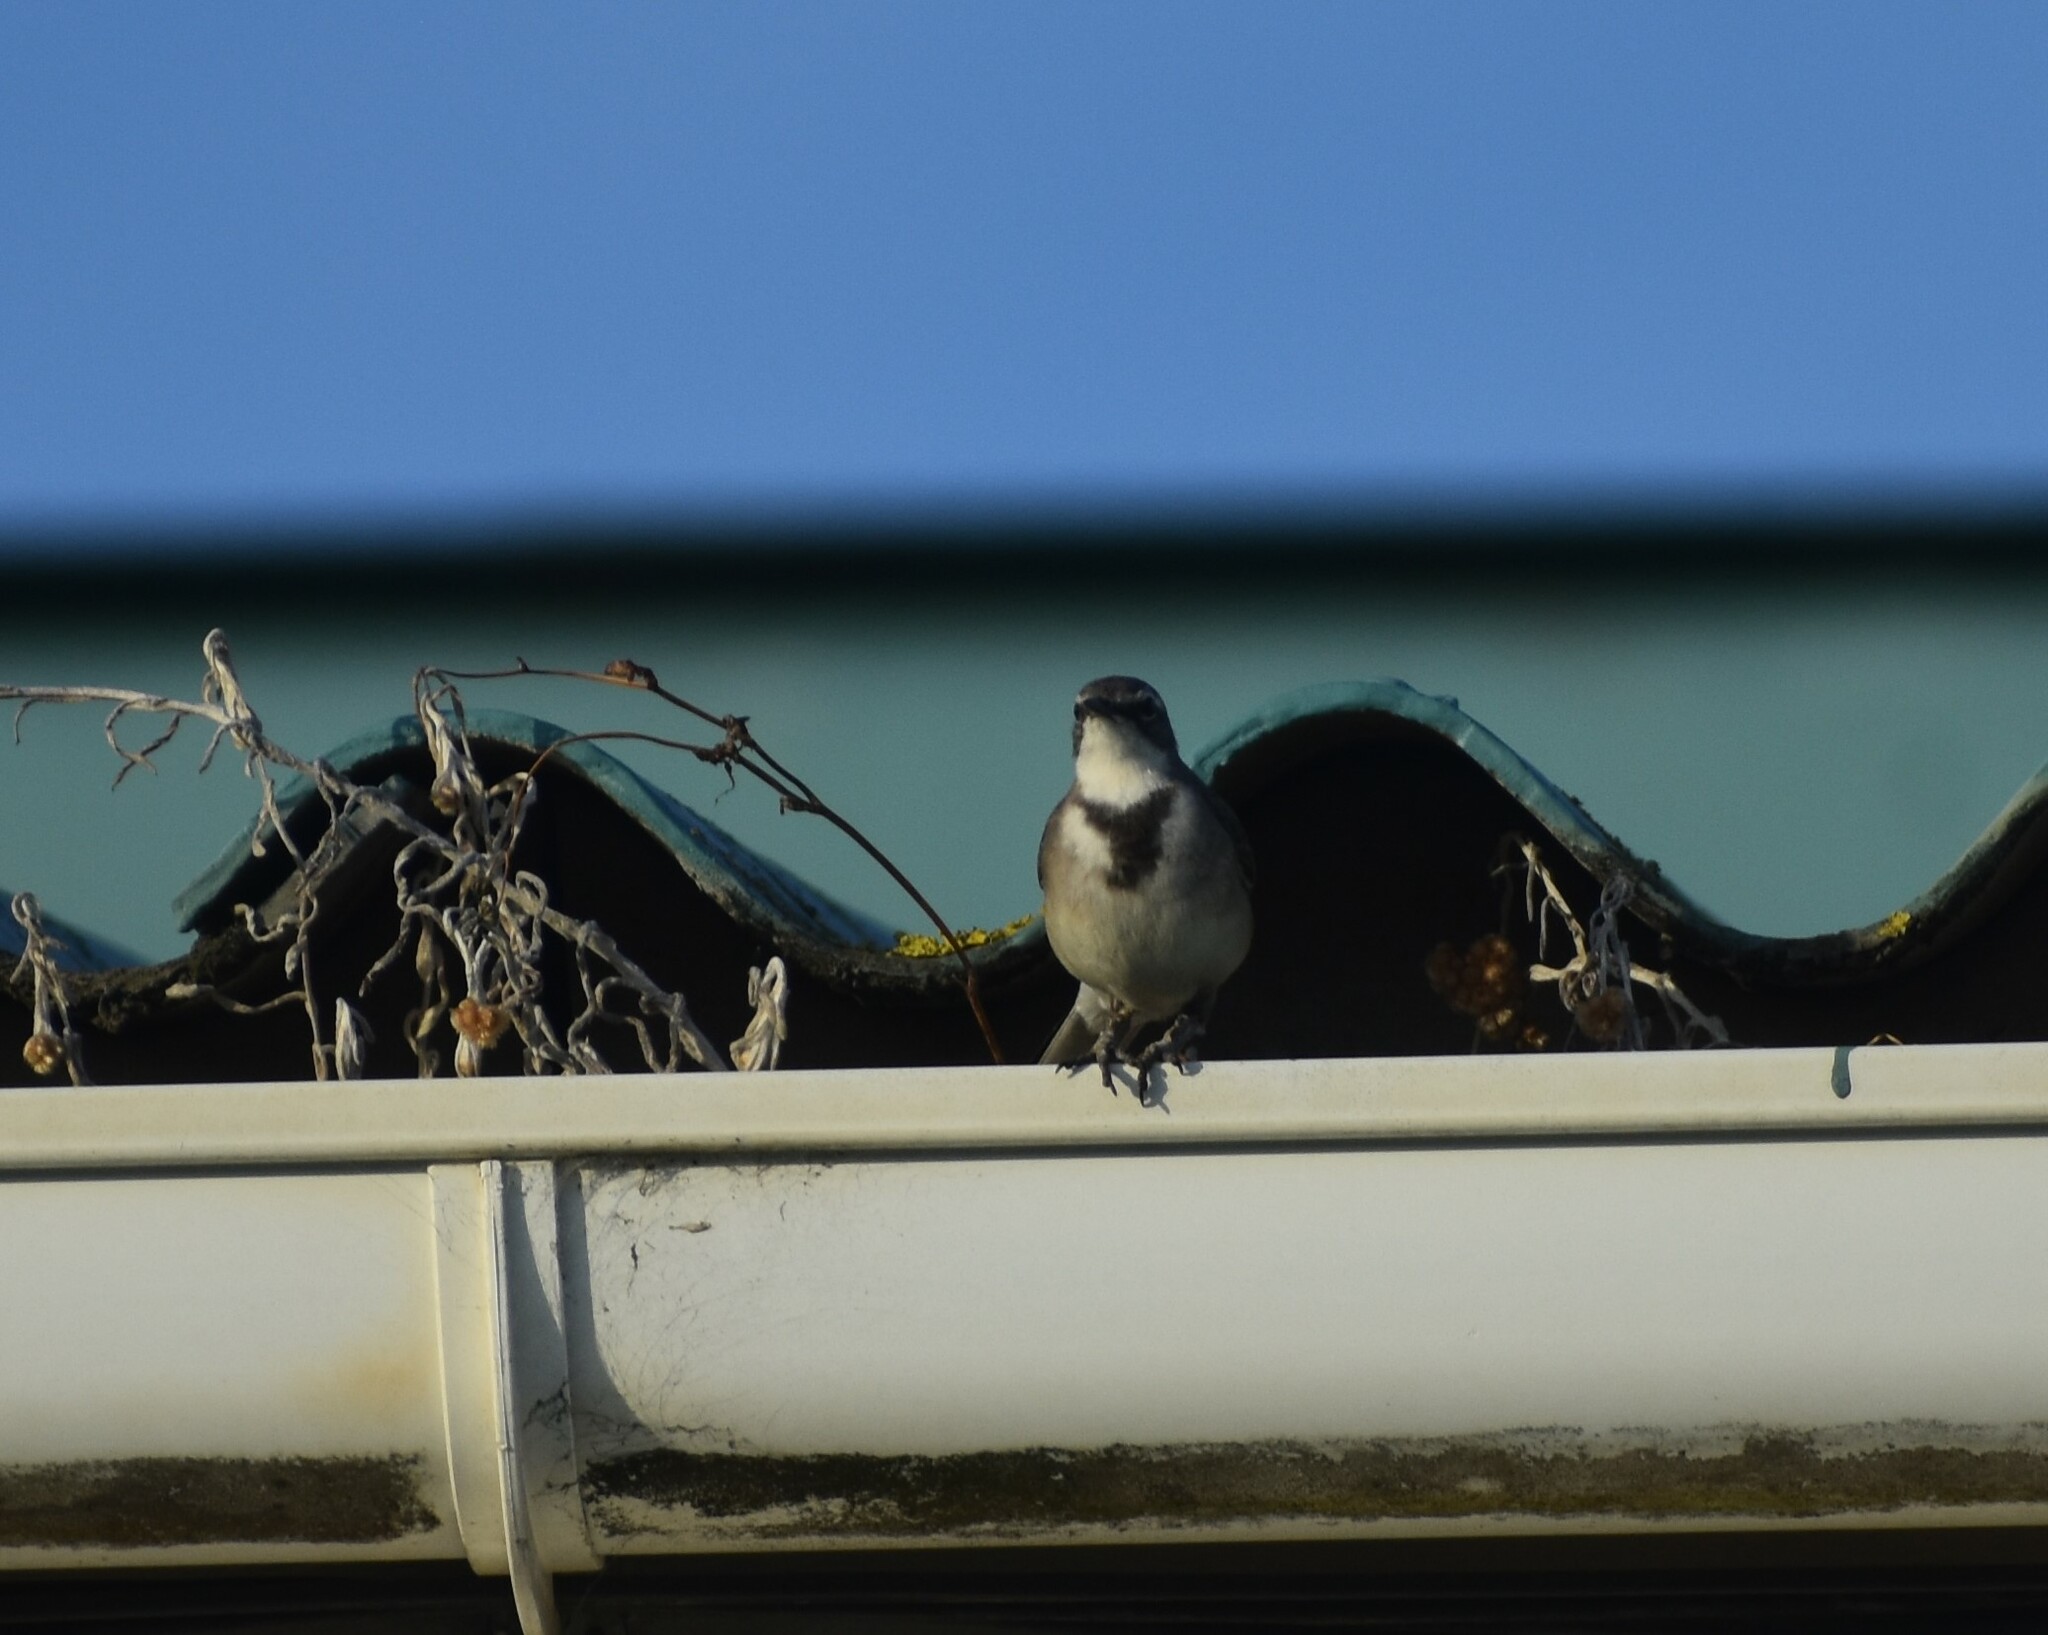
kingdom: Animalia
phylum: Chordata
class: Aves
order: Passeriformes
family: Motacillidae
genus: Motacilla
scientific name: Motacilla capensis
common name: Cape wagtail
